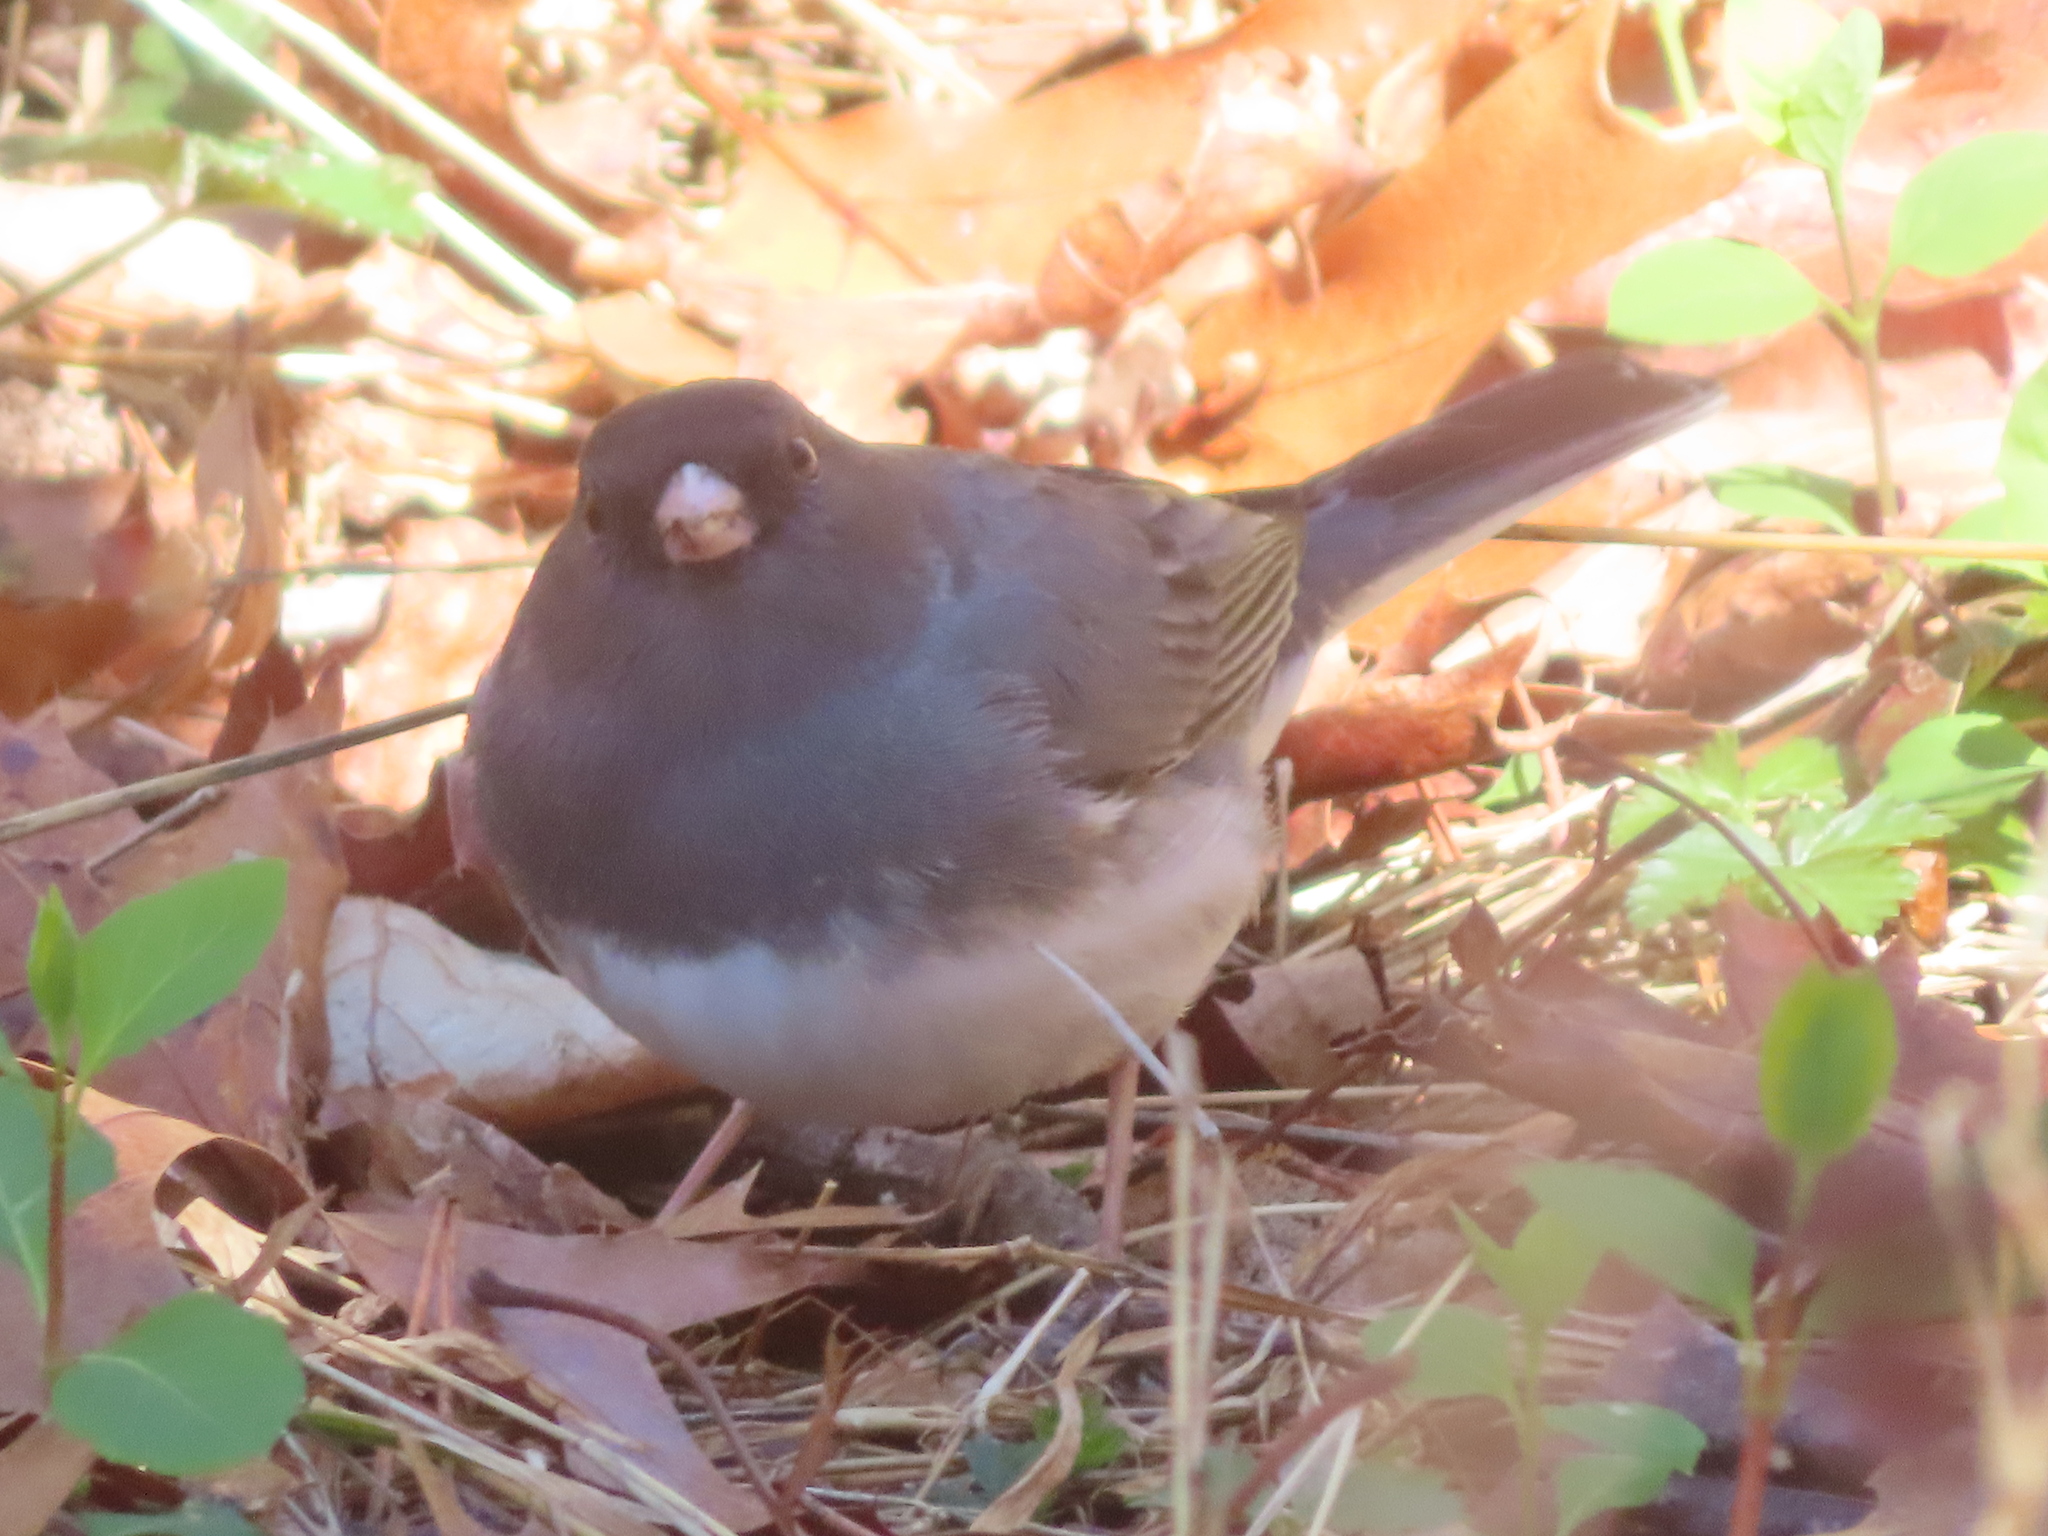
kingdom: Animalia
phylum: Chordata
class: Aves
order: Passeriformes
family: Passerellidae
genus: Junco
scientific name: Junco hyemalis
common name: Dark-eyed junco
